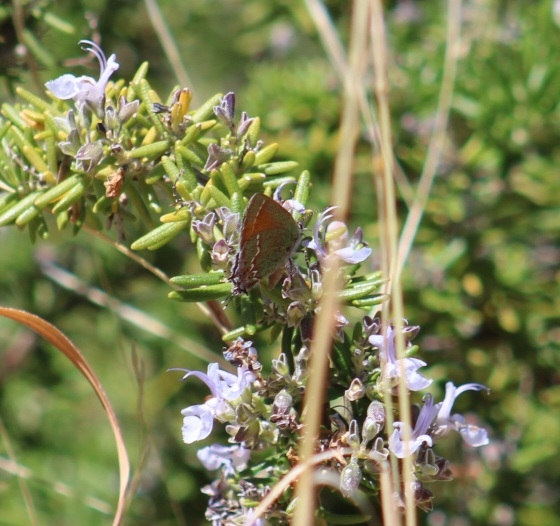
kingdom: Animalia
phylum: Arthropoda
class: Insecta
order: Lepidoptera
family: Lycaenidae
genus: Mitoura
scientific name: Mitoura siva
